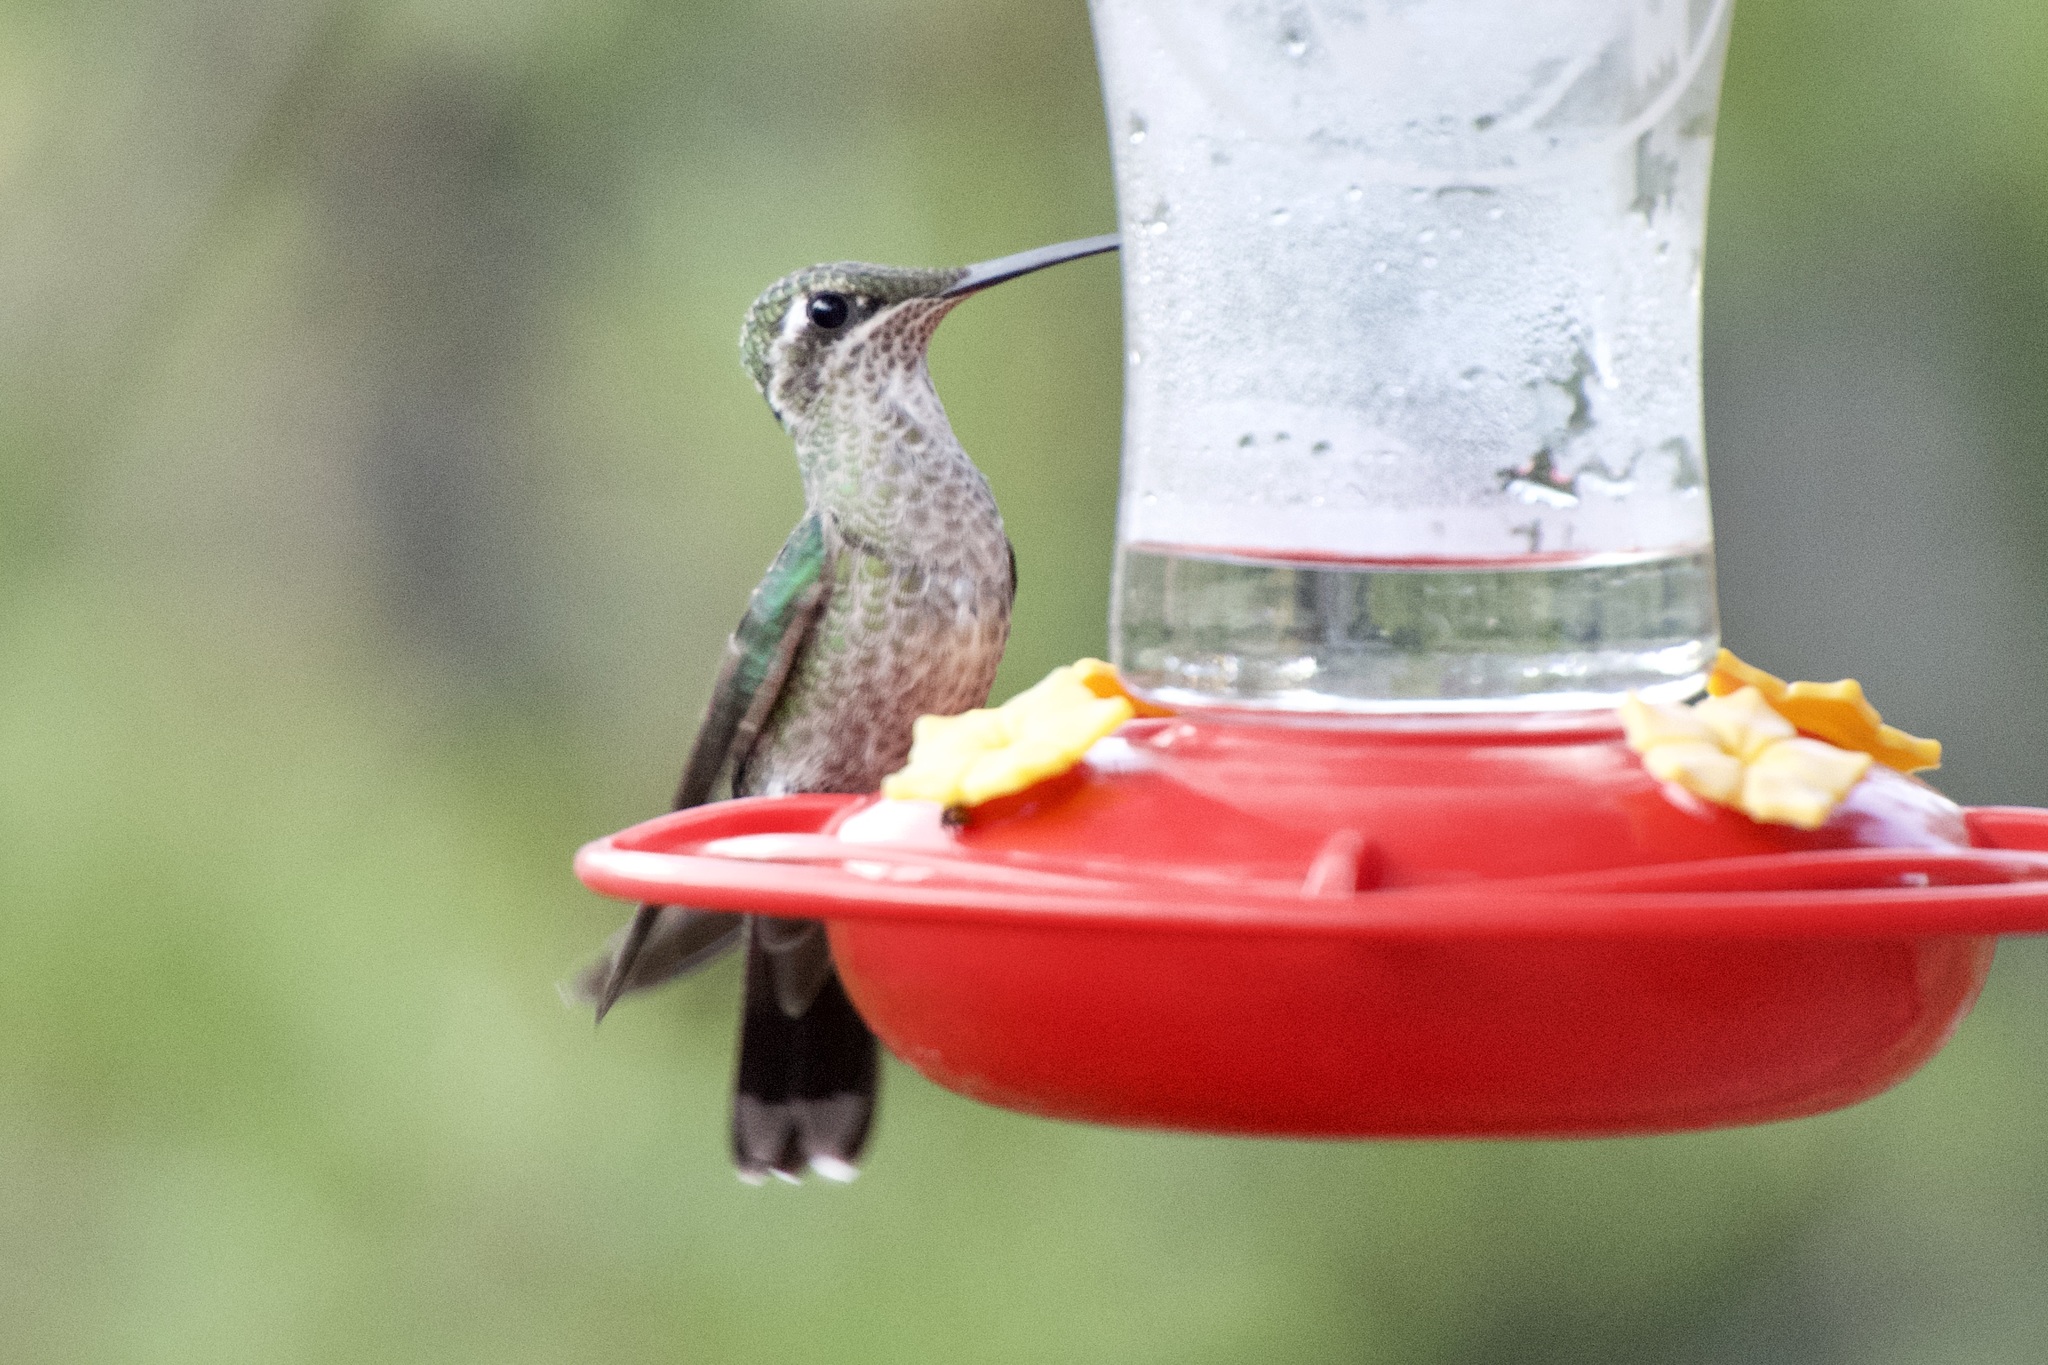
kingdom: Animalia
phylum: Chordata
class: Aves
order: Apodiformes
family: Trochilidae
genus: Eugenes
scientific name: Eugenes fulgens
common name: Magnificent hummingbird
